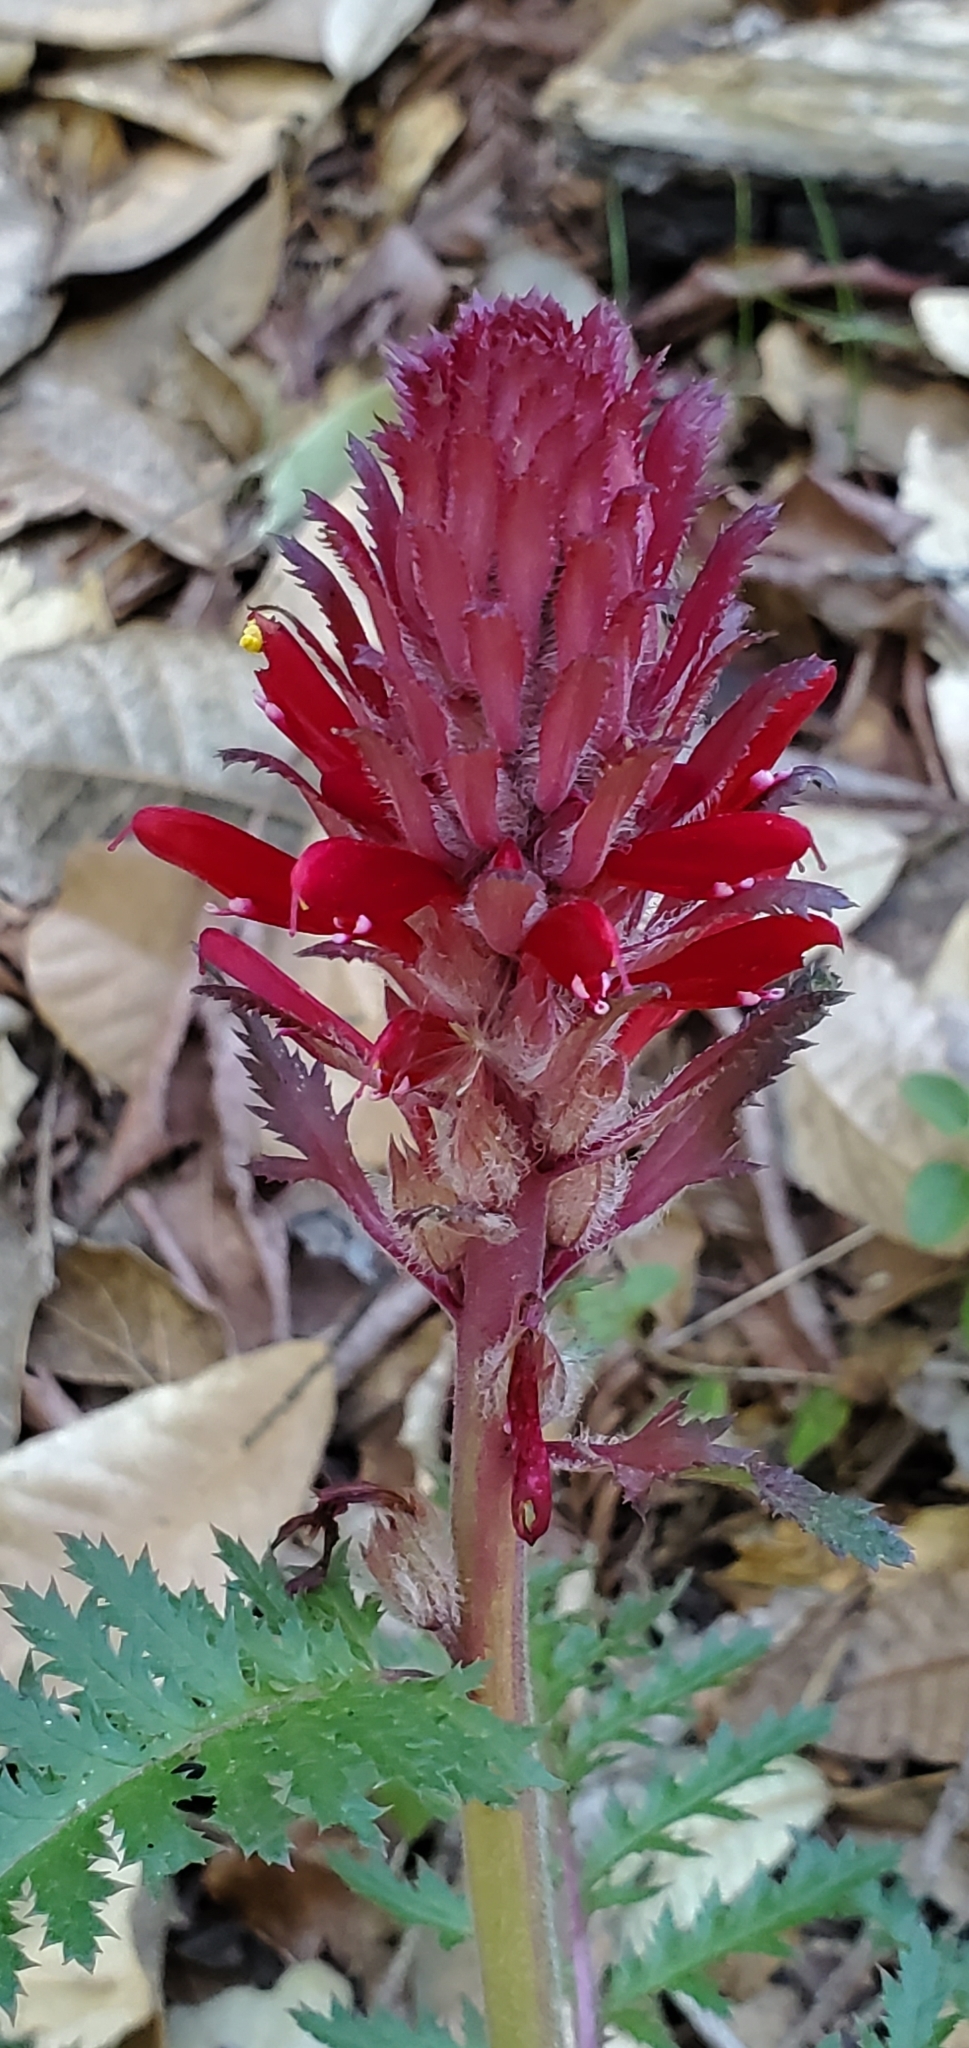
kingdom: Plantae
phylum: Tracheophyta
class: Magnoliopsida
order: Lamiales
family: Orobanchaceae
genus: Pedicularis
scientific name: Pedicularis densiflora
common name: Indian warrior
